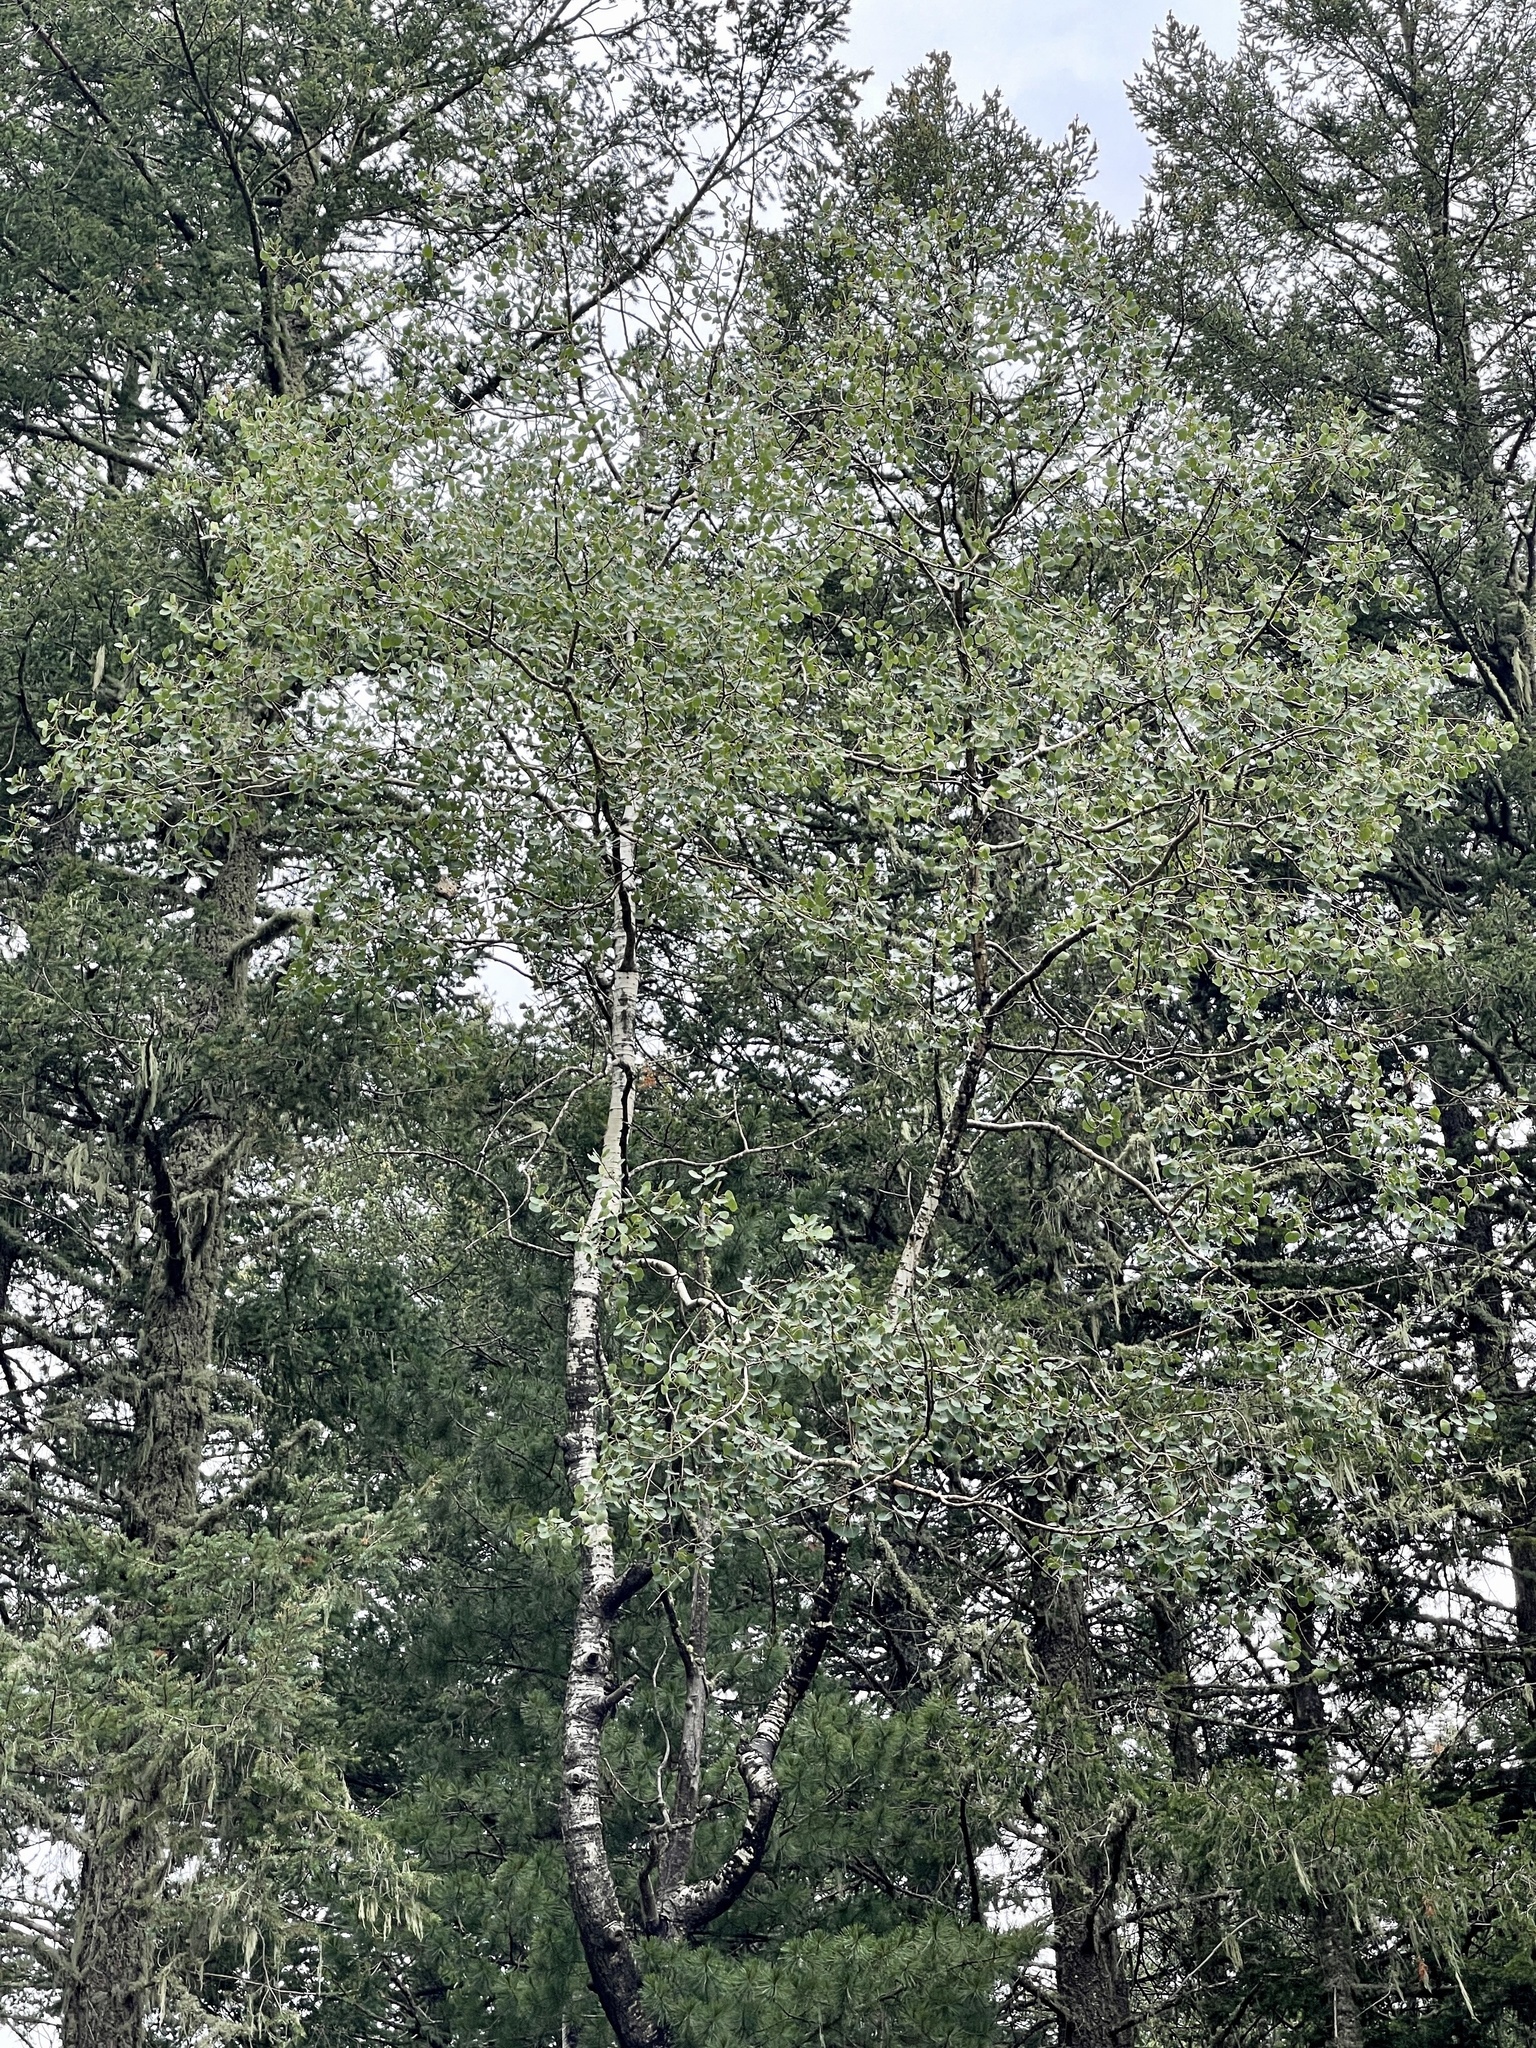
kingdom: Plantae
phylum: Tracheophyta
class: Magnoliopsida
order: Malpighiales
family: Salicaceae
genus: Populus
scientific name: Populus tremuloides
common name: Quaking aspen
